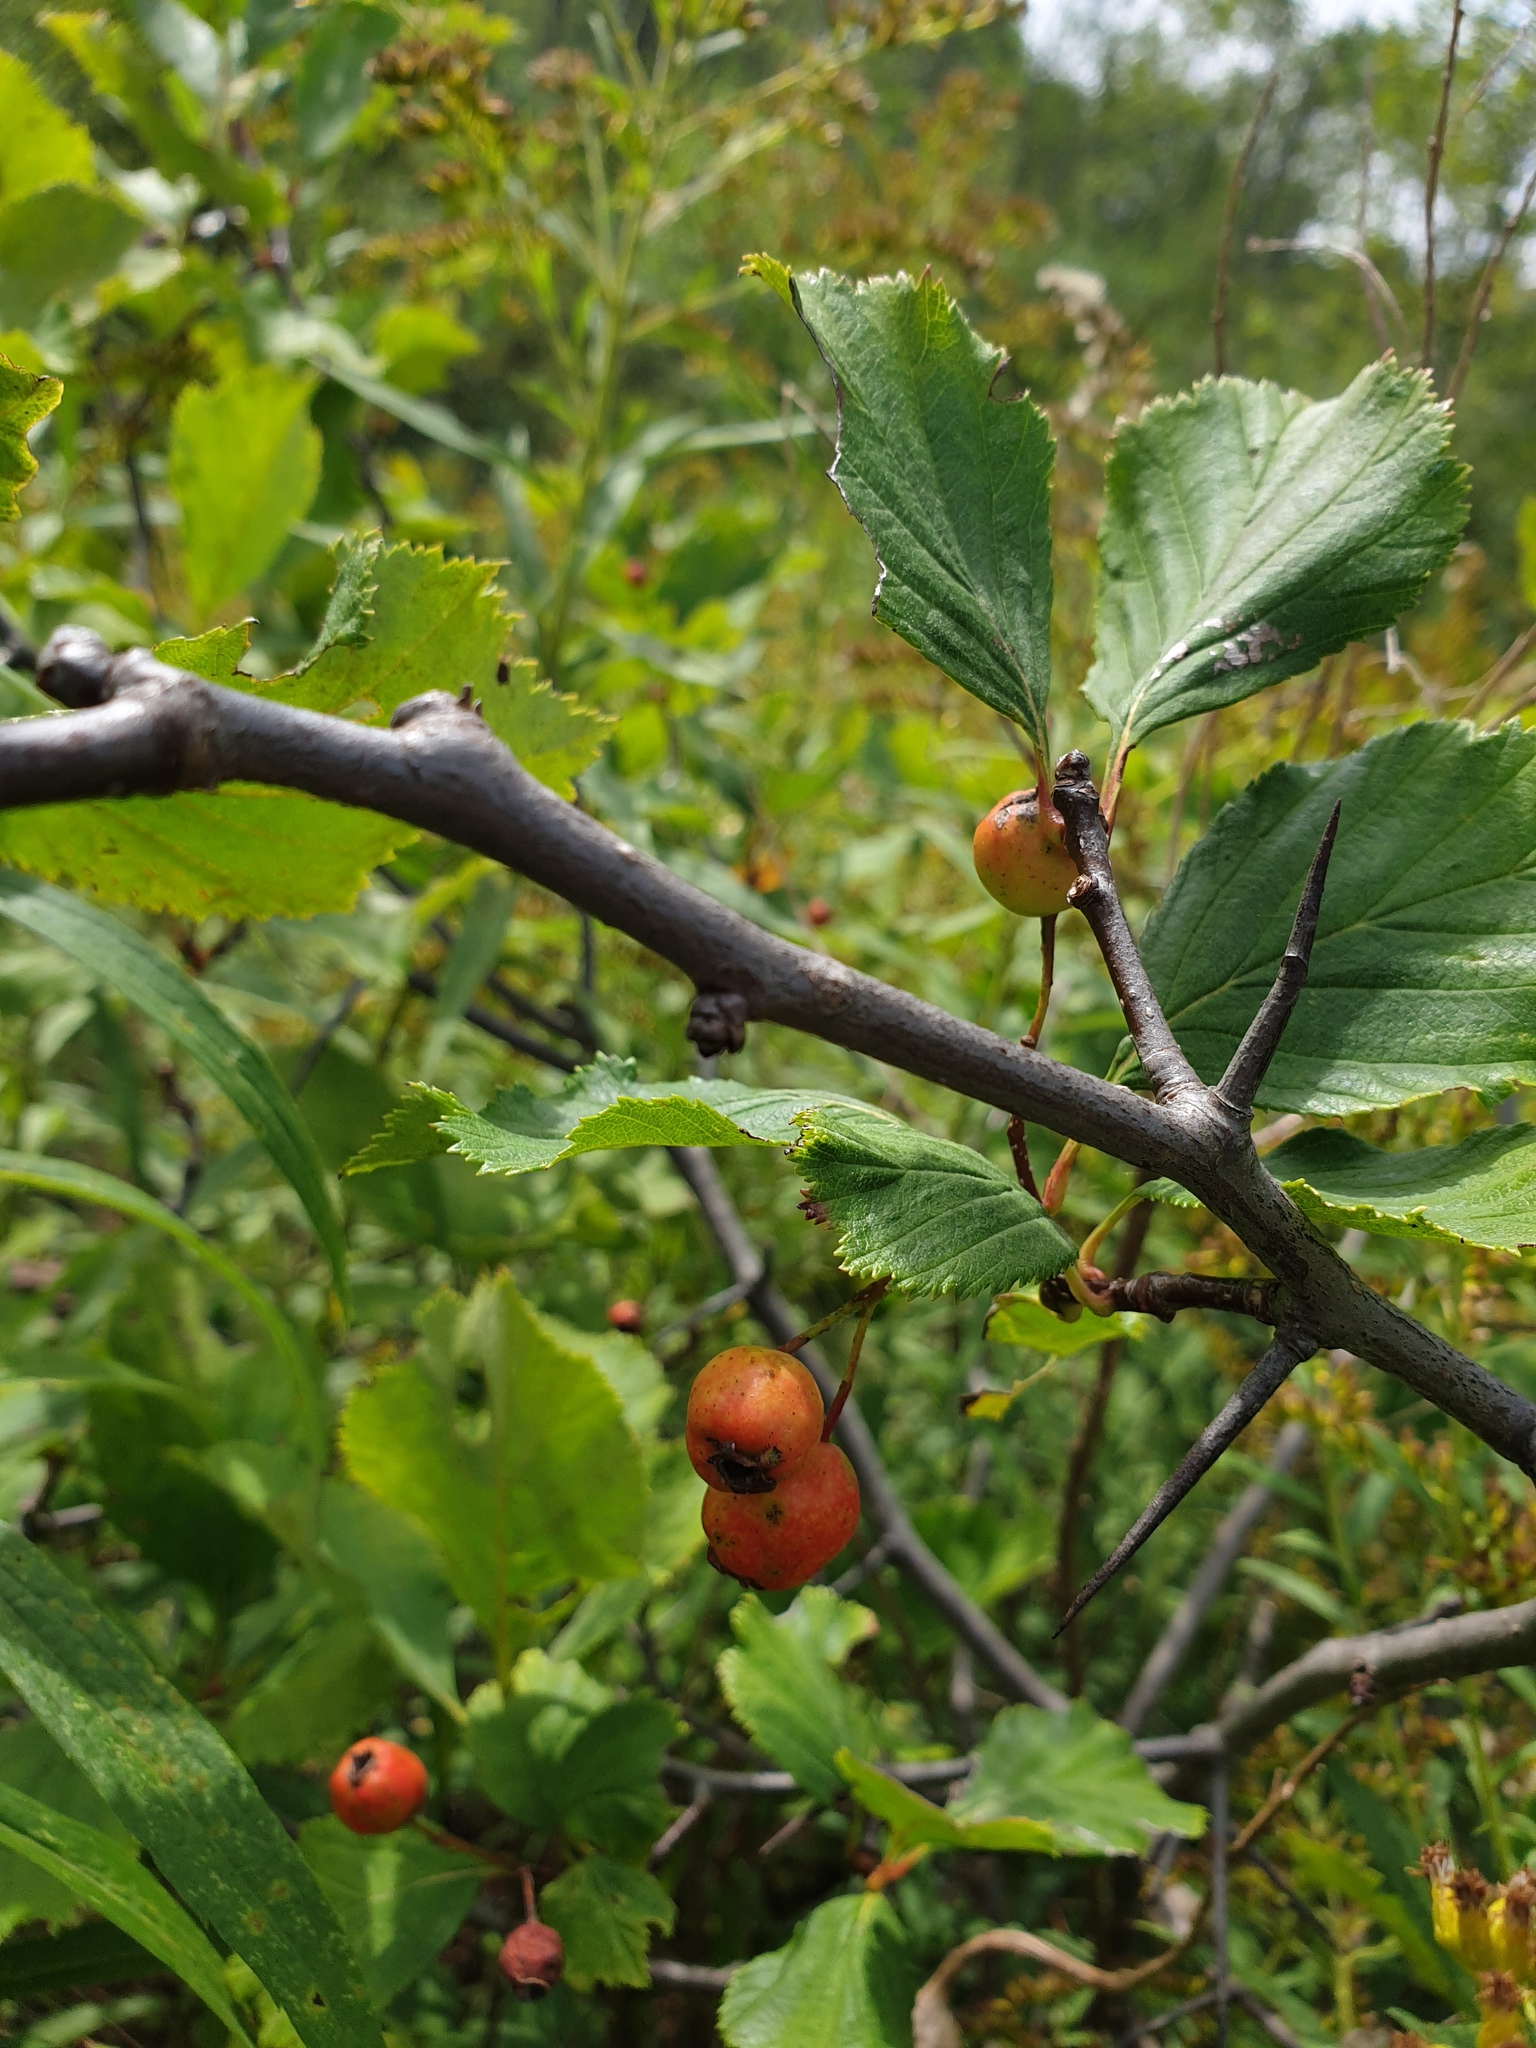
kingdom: Plantae
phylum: Tracheophyta
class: Magnoliopsida
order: Rosales
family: Rosaceae
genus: Crataegus
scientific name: Crataegus macracantha
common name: Large-thorn hawthorn
